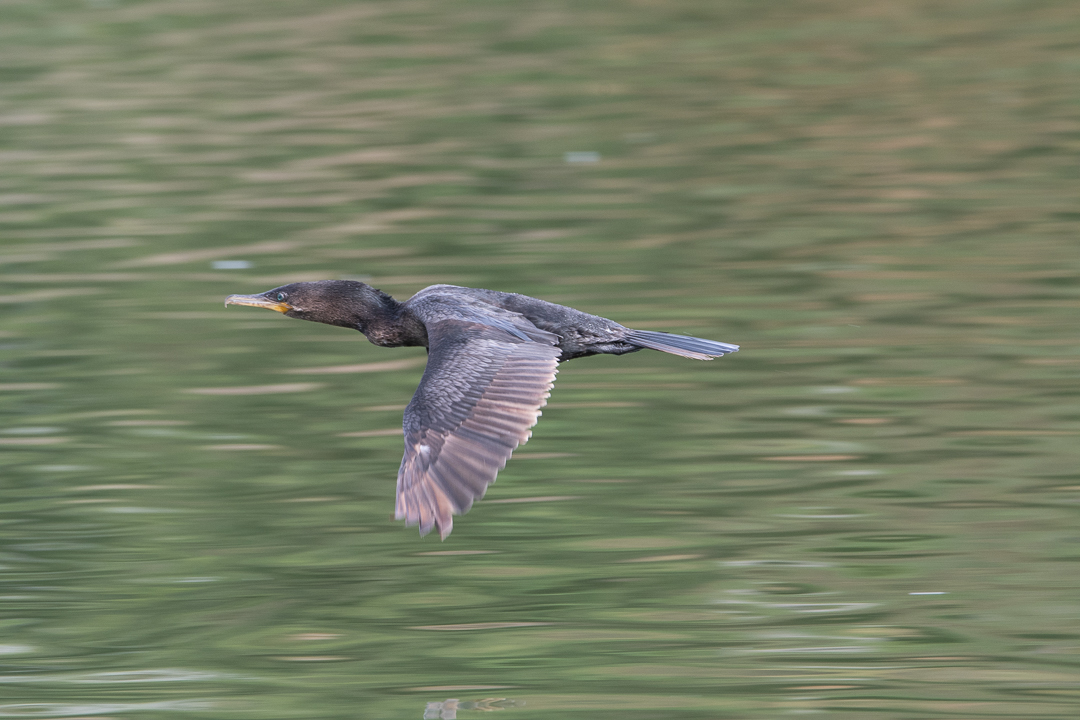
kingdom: Animalia
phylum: Chordata
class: Aves
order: Suliformes
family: Phalacrocoracidae
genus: Phalacrocorax
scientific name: Phalacrocorax brasilianus
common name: Neotropic cormorant
